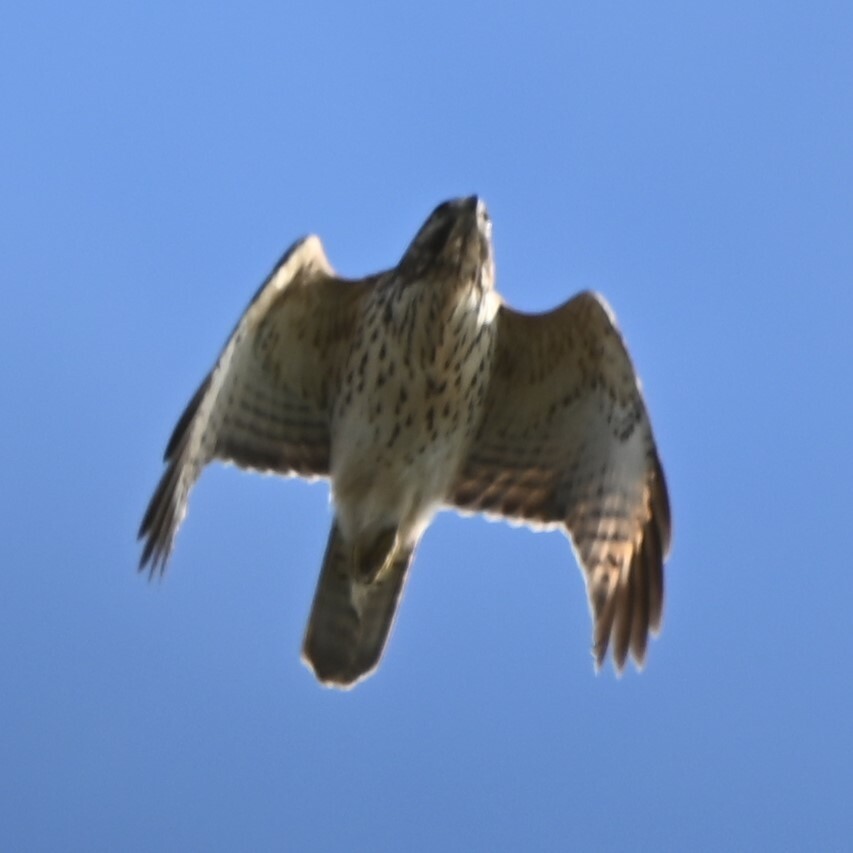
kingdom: Animalia
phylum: Chordata
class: Aves
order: Accipitriformes
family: Accipitridae
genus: Buteo
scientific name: Buteo lineatus
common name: Red-shouldered hawk
